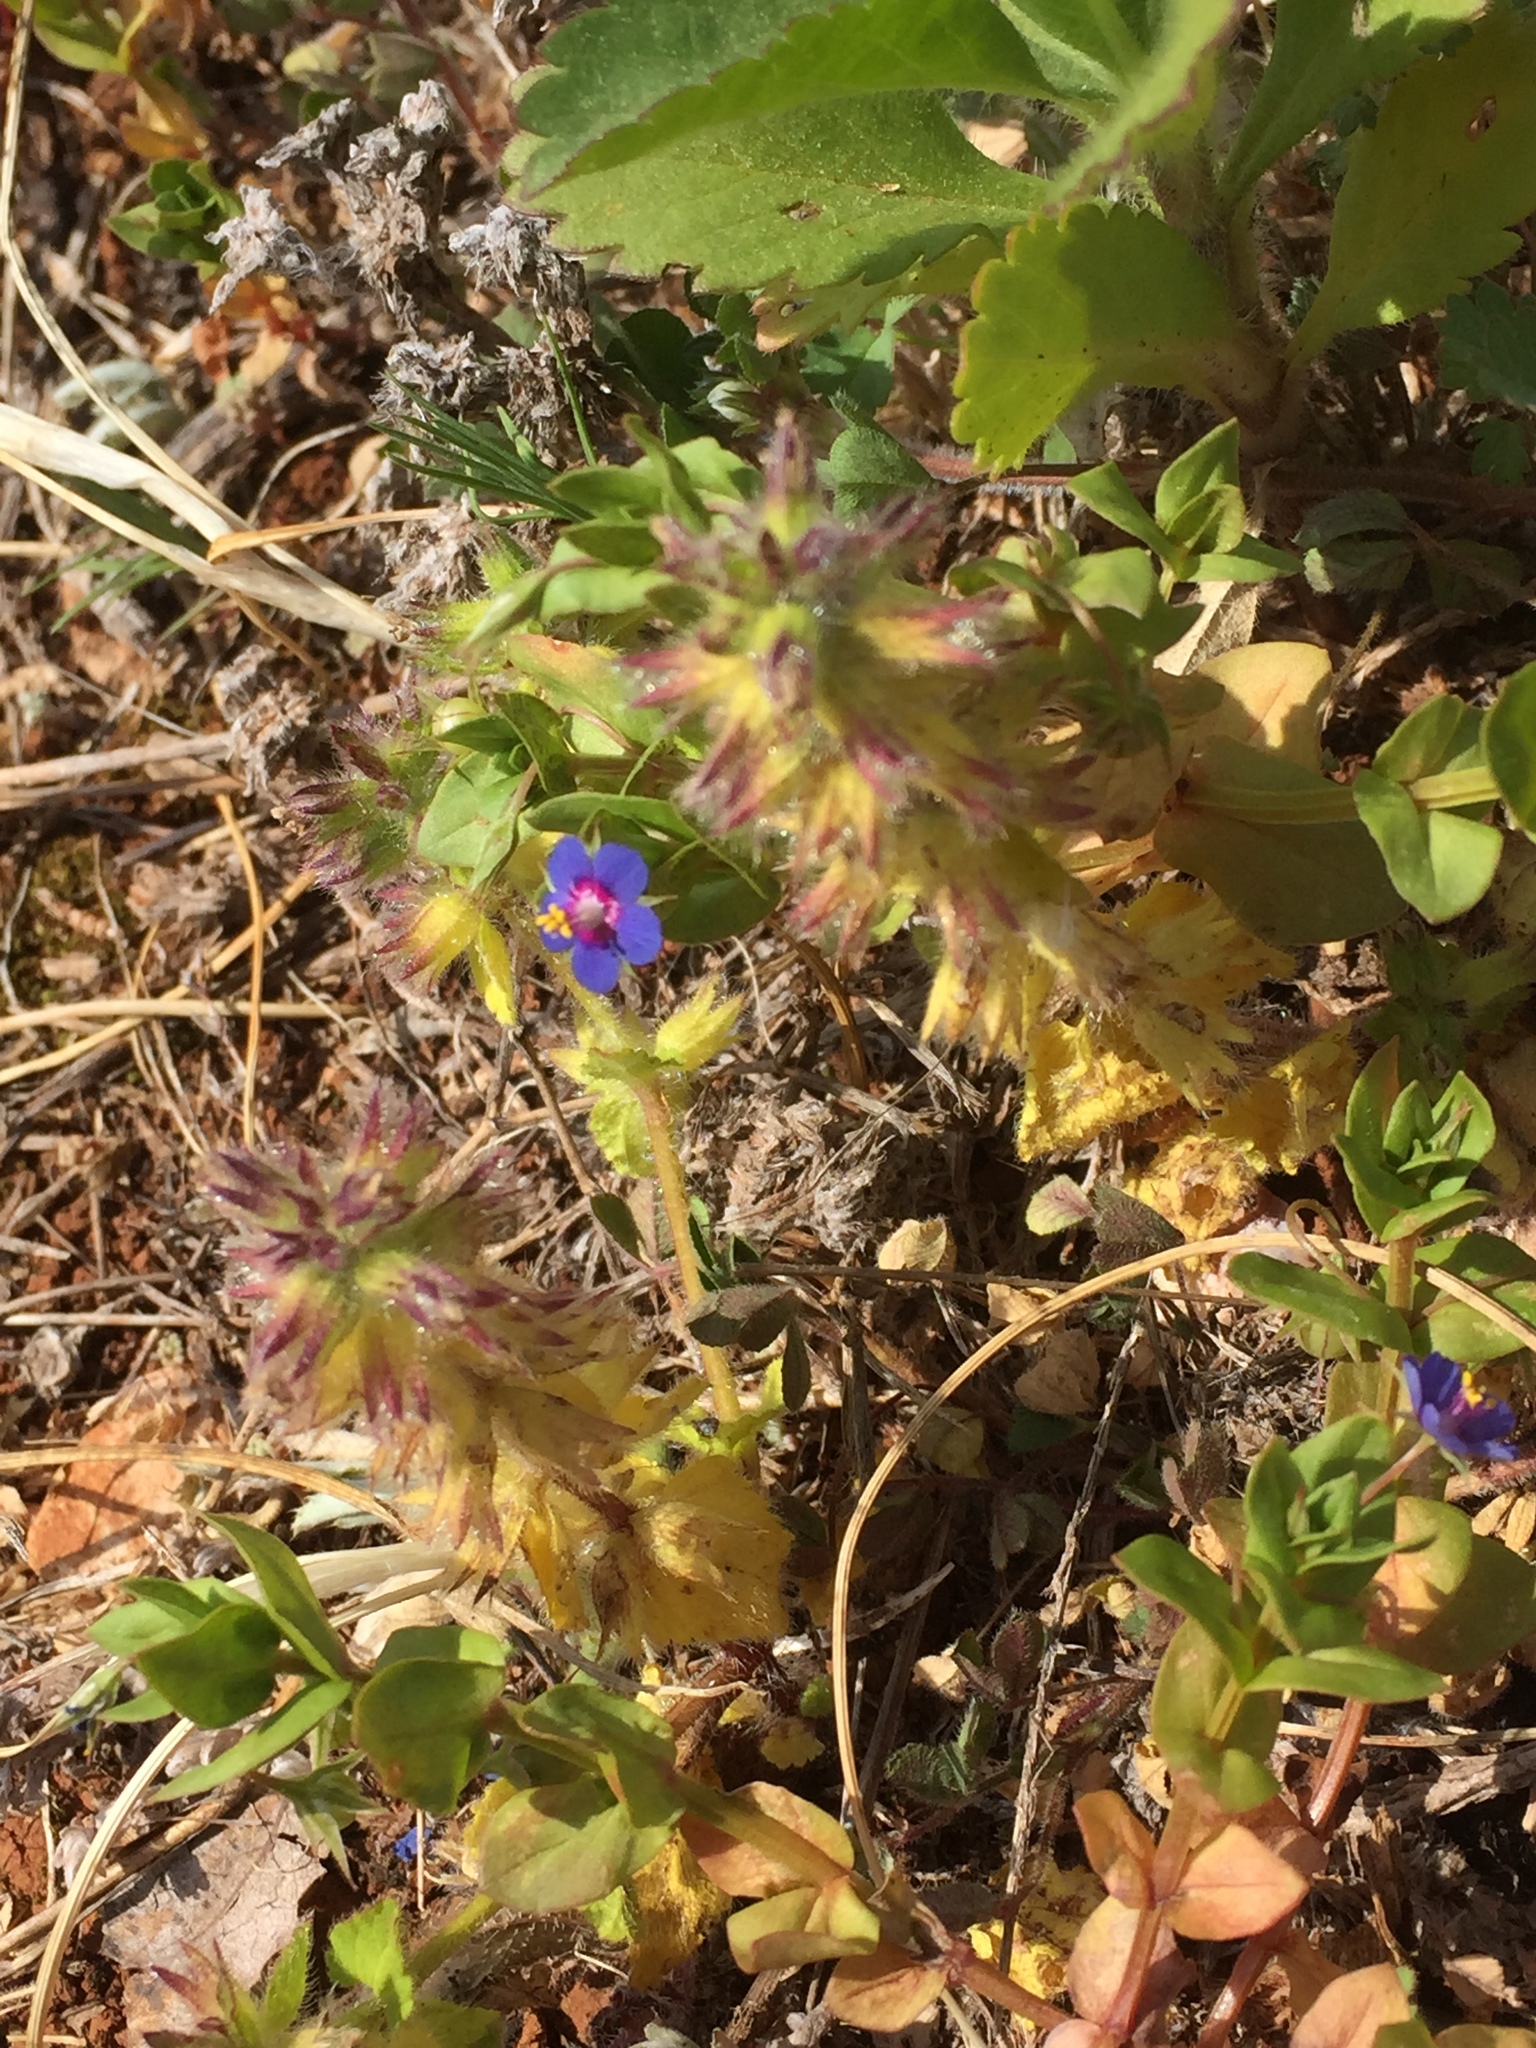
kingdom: Plantae
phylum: Tracheophyta
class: Magnoliopsida
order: Ericales
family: Primulaceae
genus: Lysimachia
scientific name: Lysimachia loeflingii
